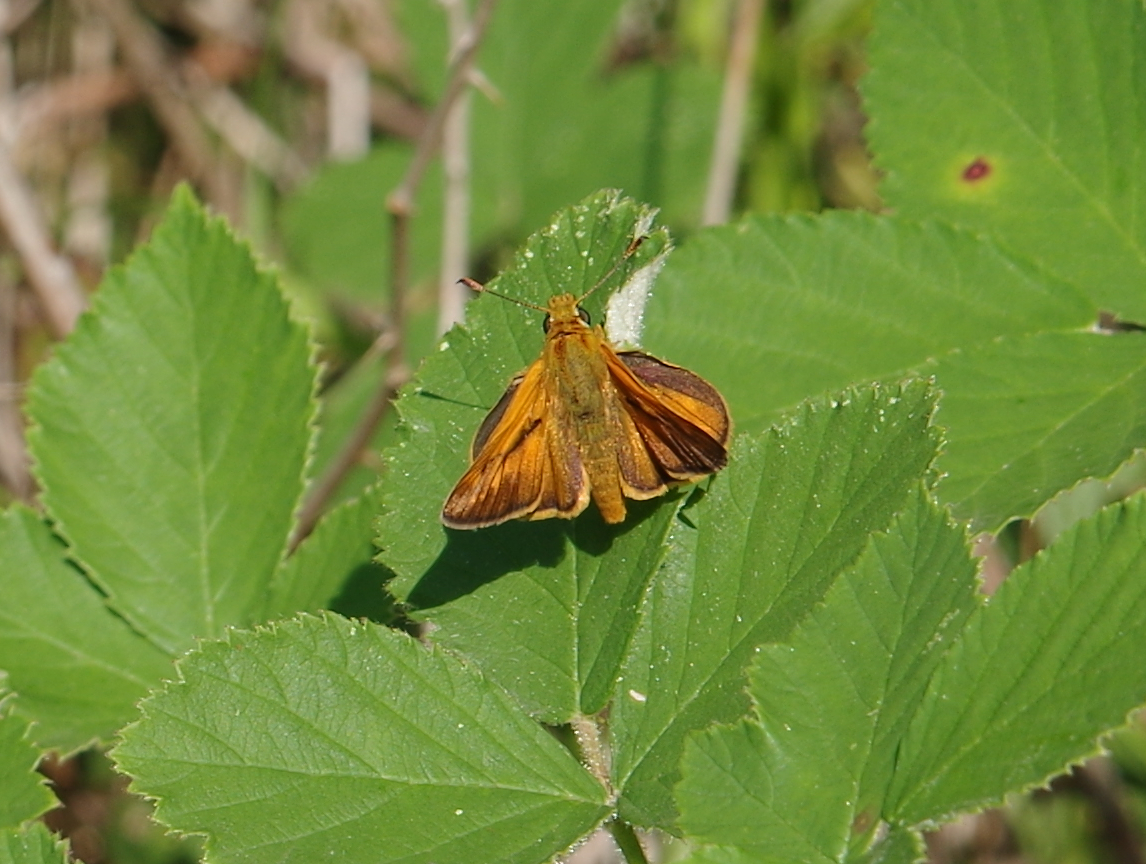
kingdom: Animalia
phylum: Arthropoda
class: Insecta
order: Lepidoptera
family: Hesperiidae
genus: Ochlodes
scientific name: Ochlodes venata
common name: Large skipper
